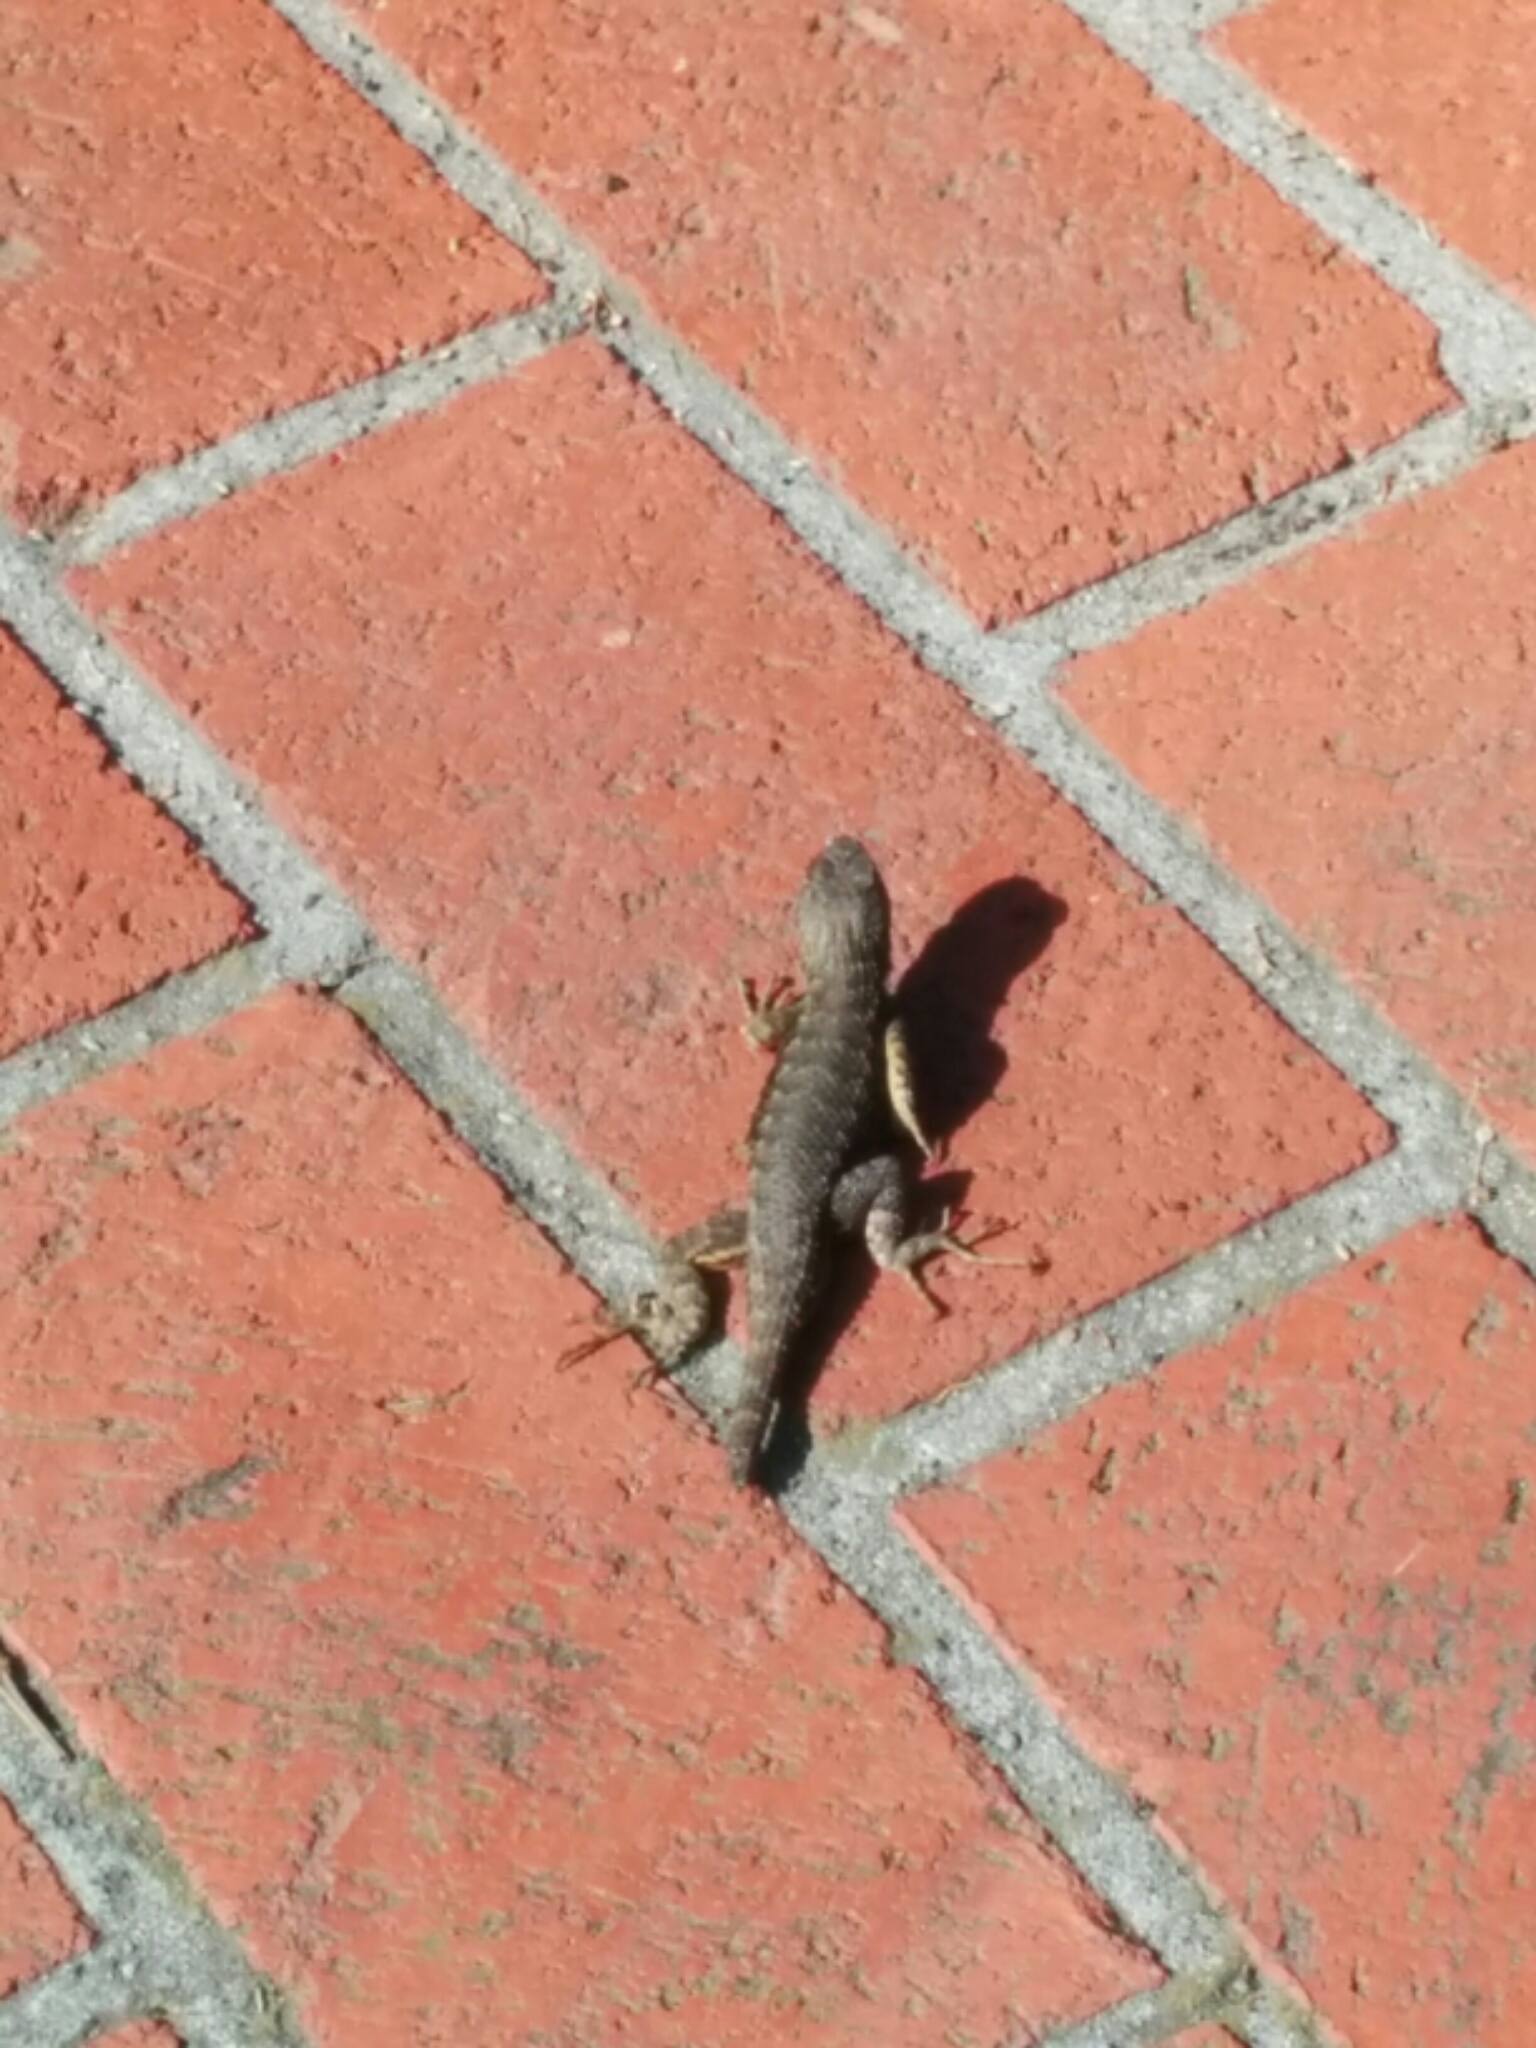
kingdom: Animalia
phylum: Chordata
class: Squamata
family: Phrynosomatidae
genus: Sceloporus
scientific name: Sceloporus occidentalis
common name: Western fence lizard
